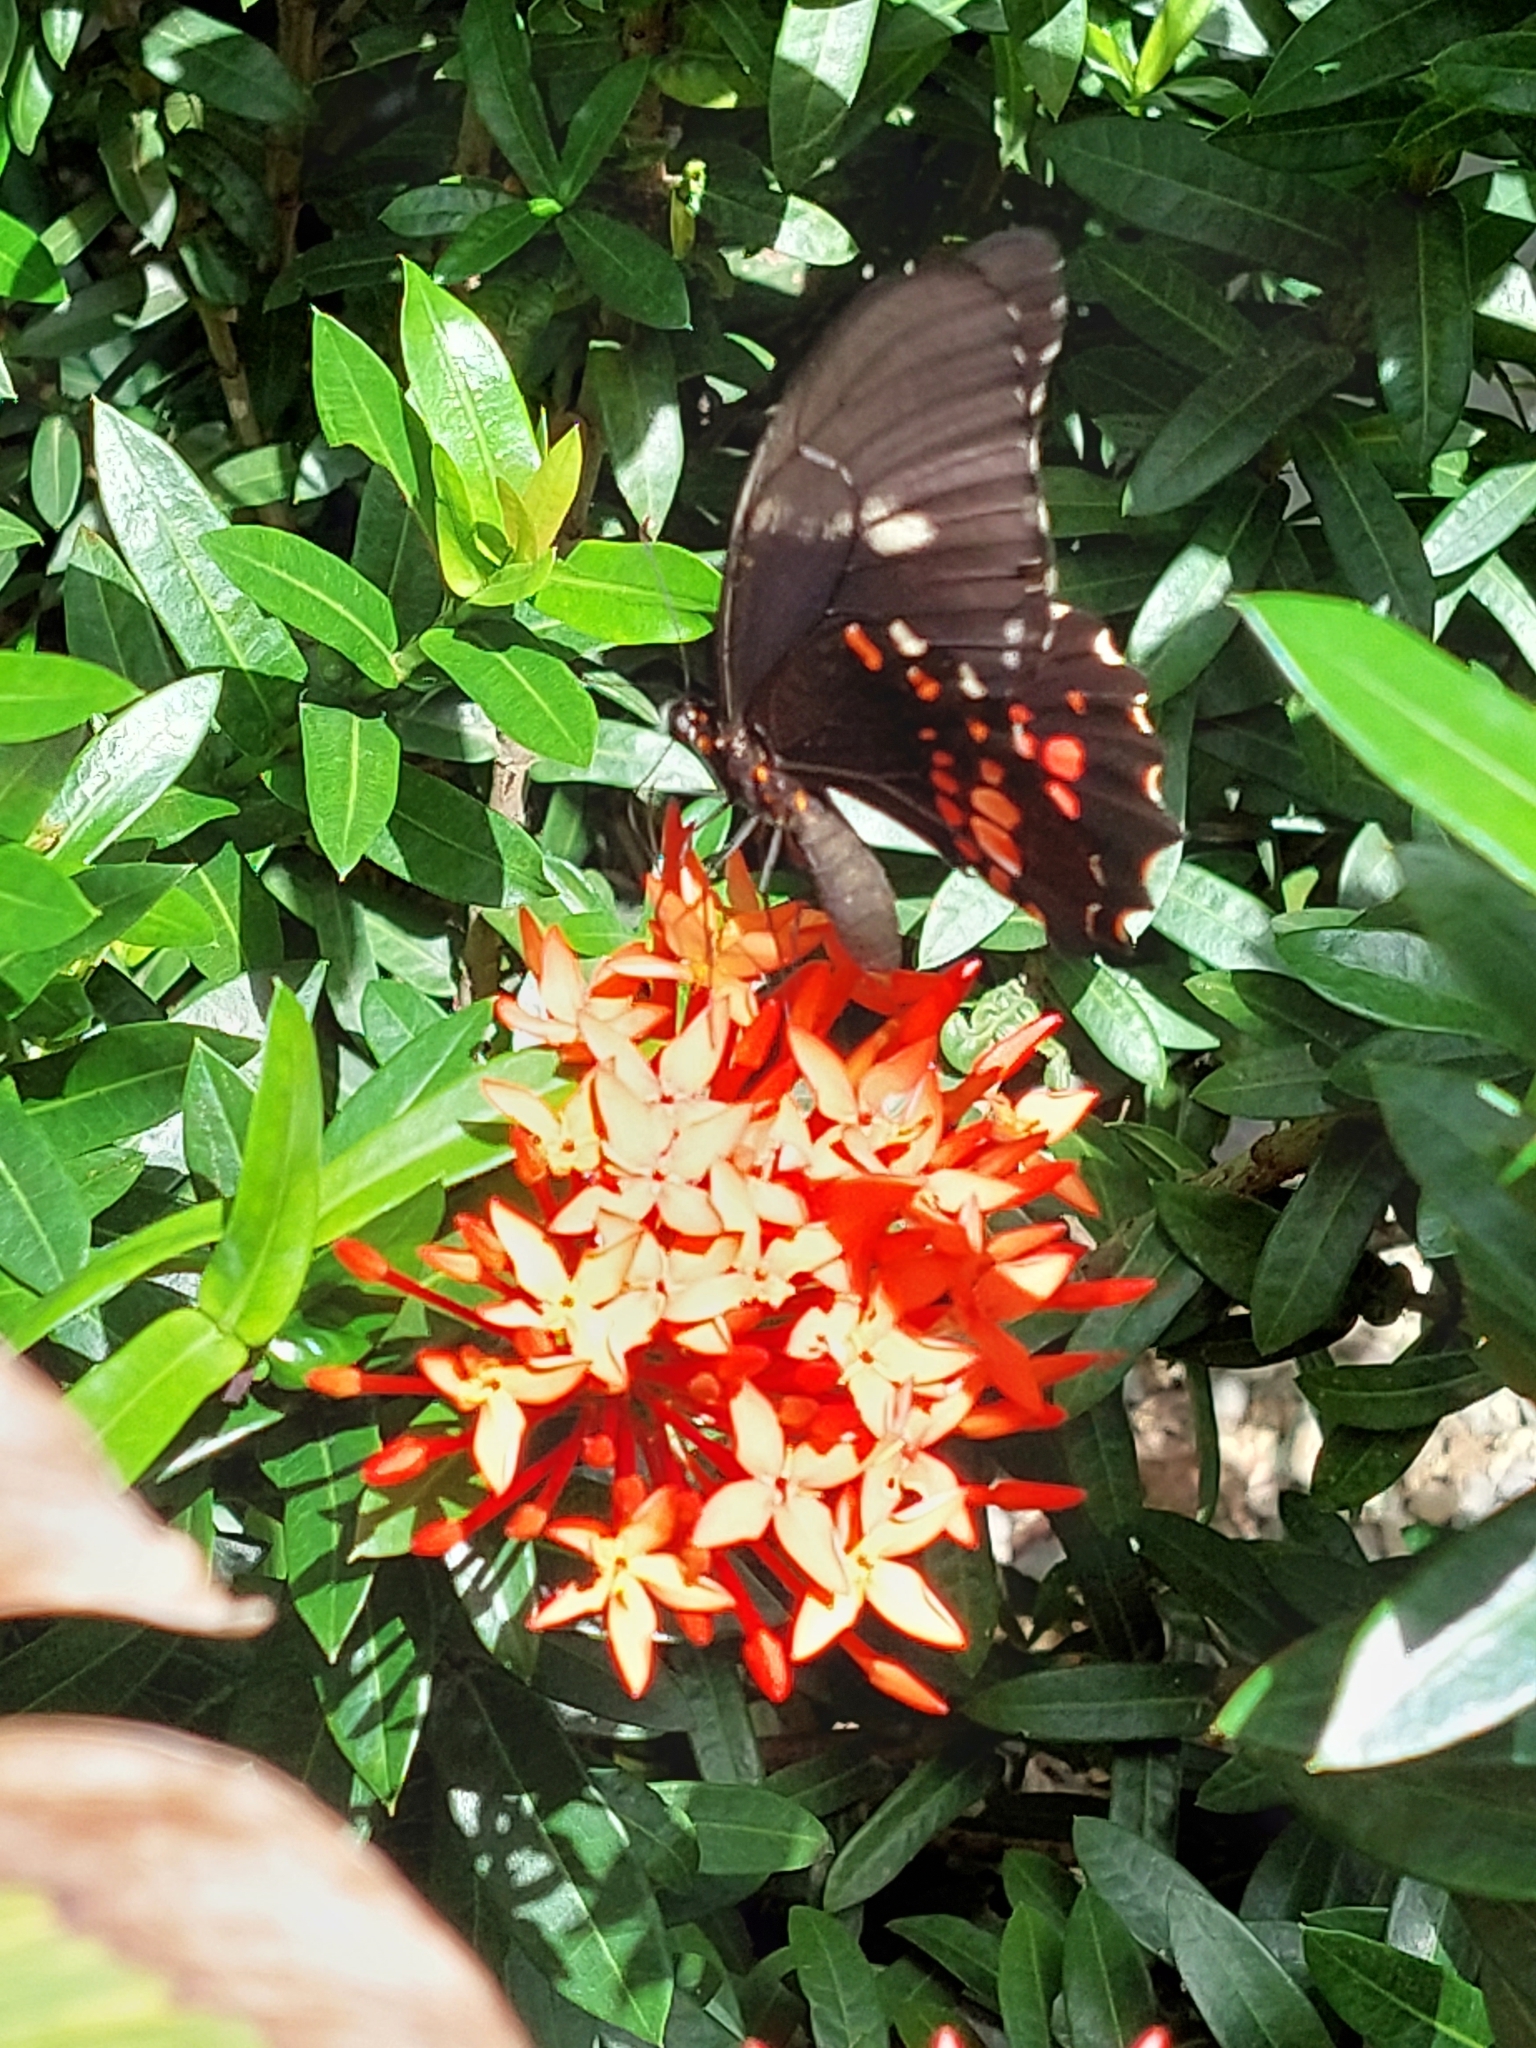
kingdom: Animalia
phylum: Arthropoda
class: Insecta
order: Lepidoptera
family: Papilionidae
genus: Papilio
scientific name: Papilio anchisiades
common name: Idaes swallowtail
